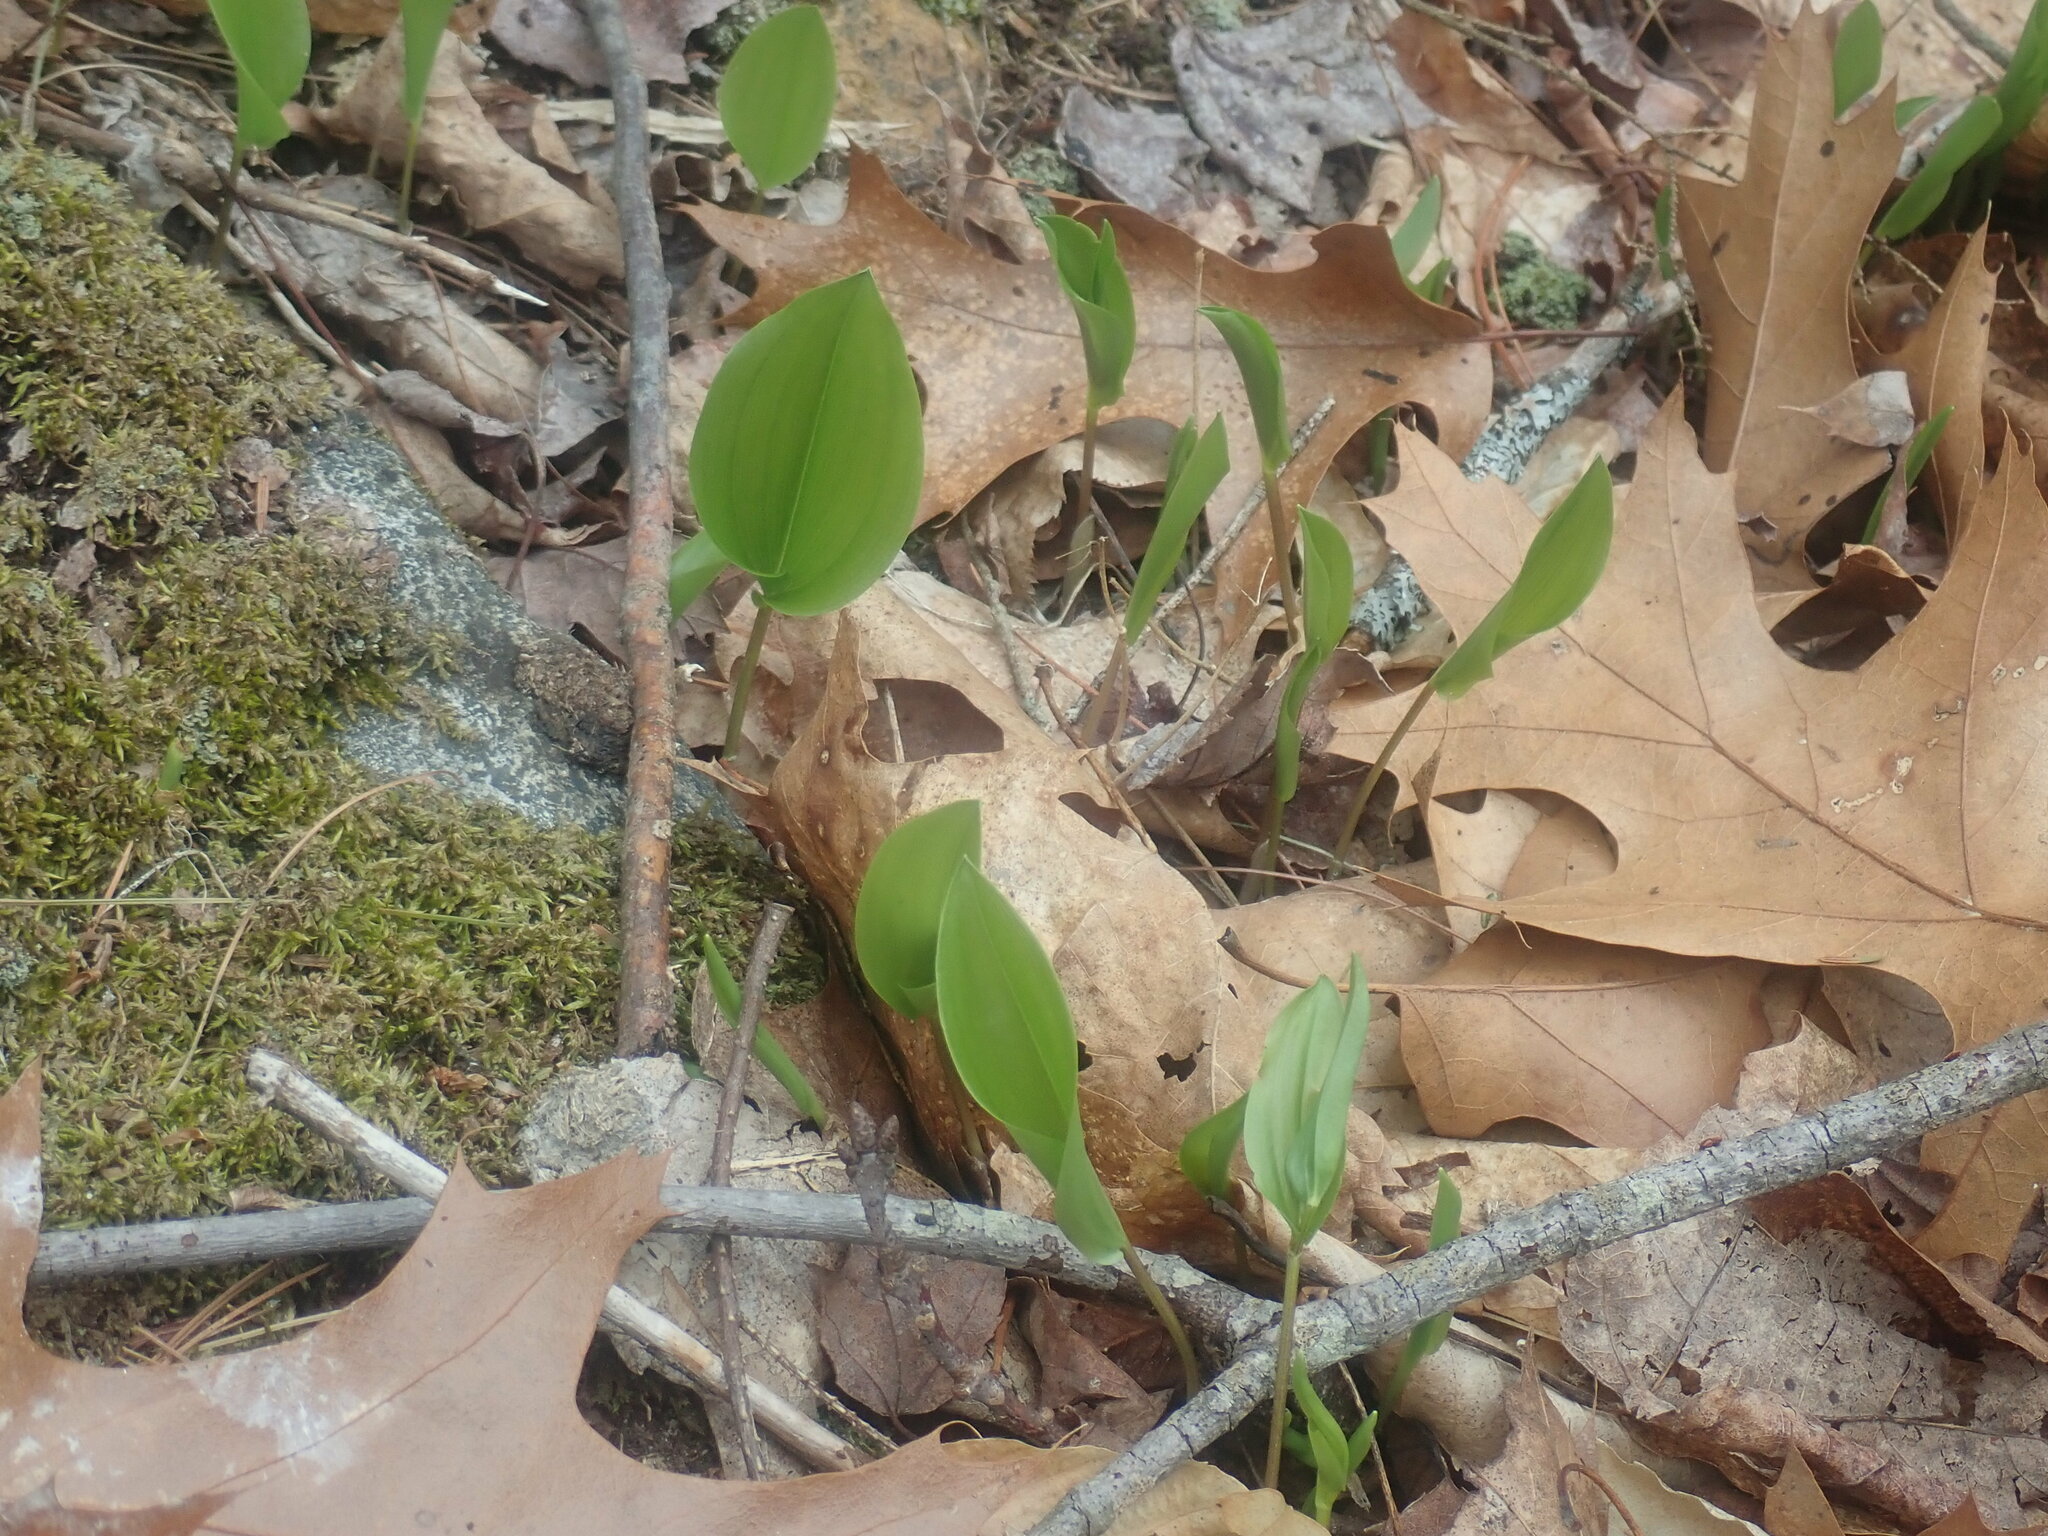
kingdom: Plantae
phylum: Tracheophyta
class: Liliopsida
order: Asparagales
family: Asparagaceae
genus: Maianthemum
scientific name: Maianthemum canadense
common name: False lily-of-the-valley
